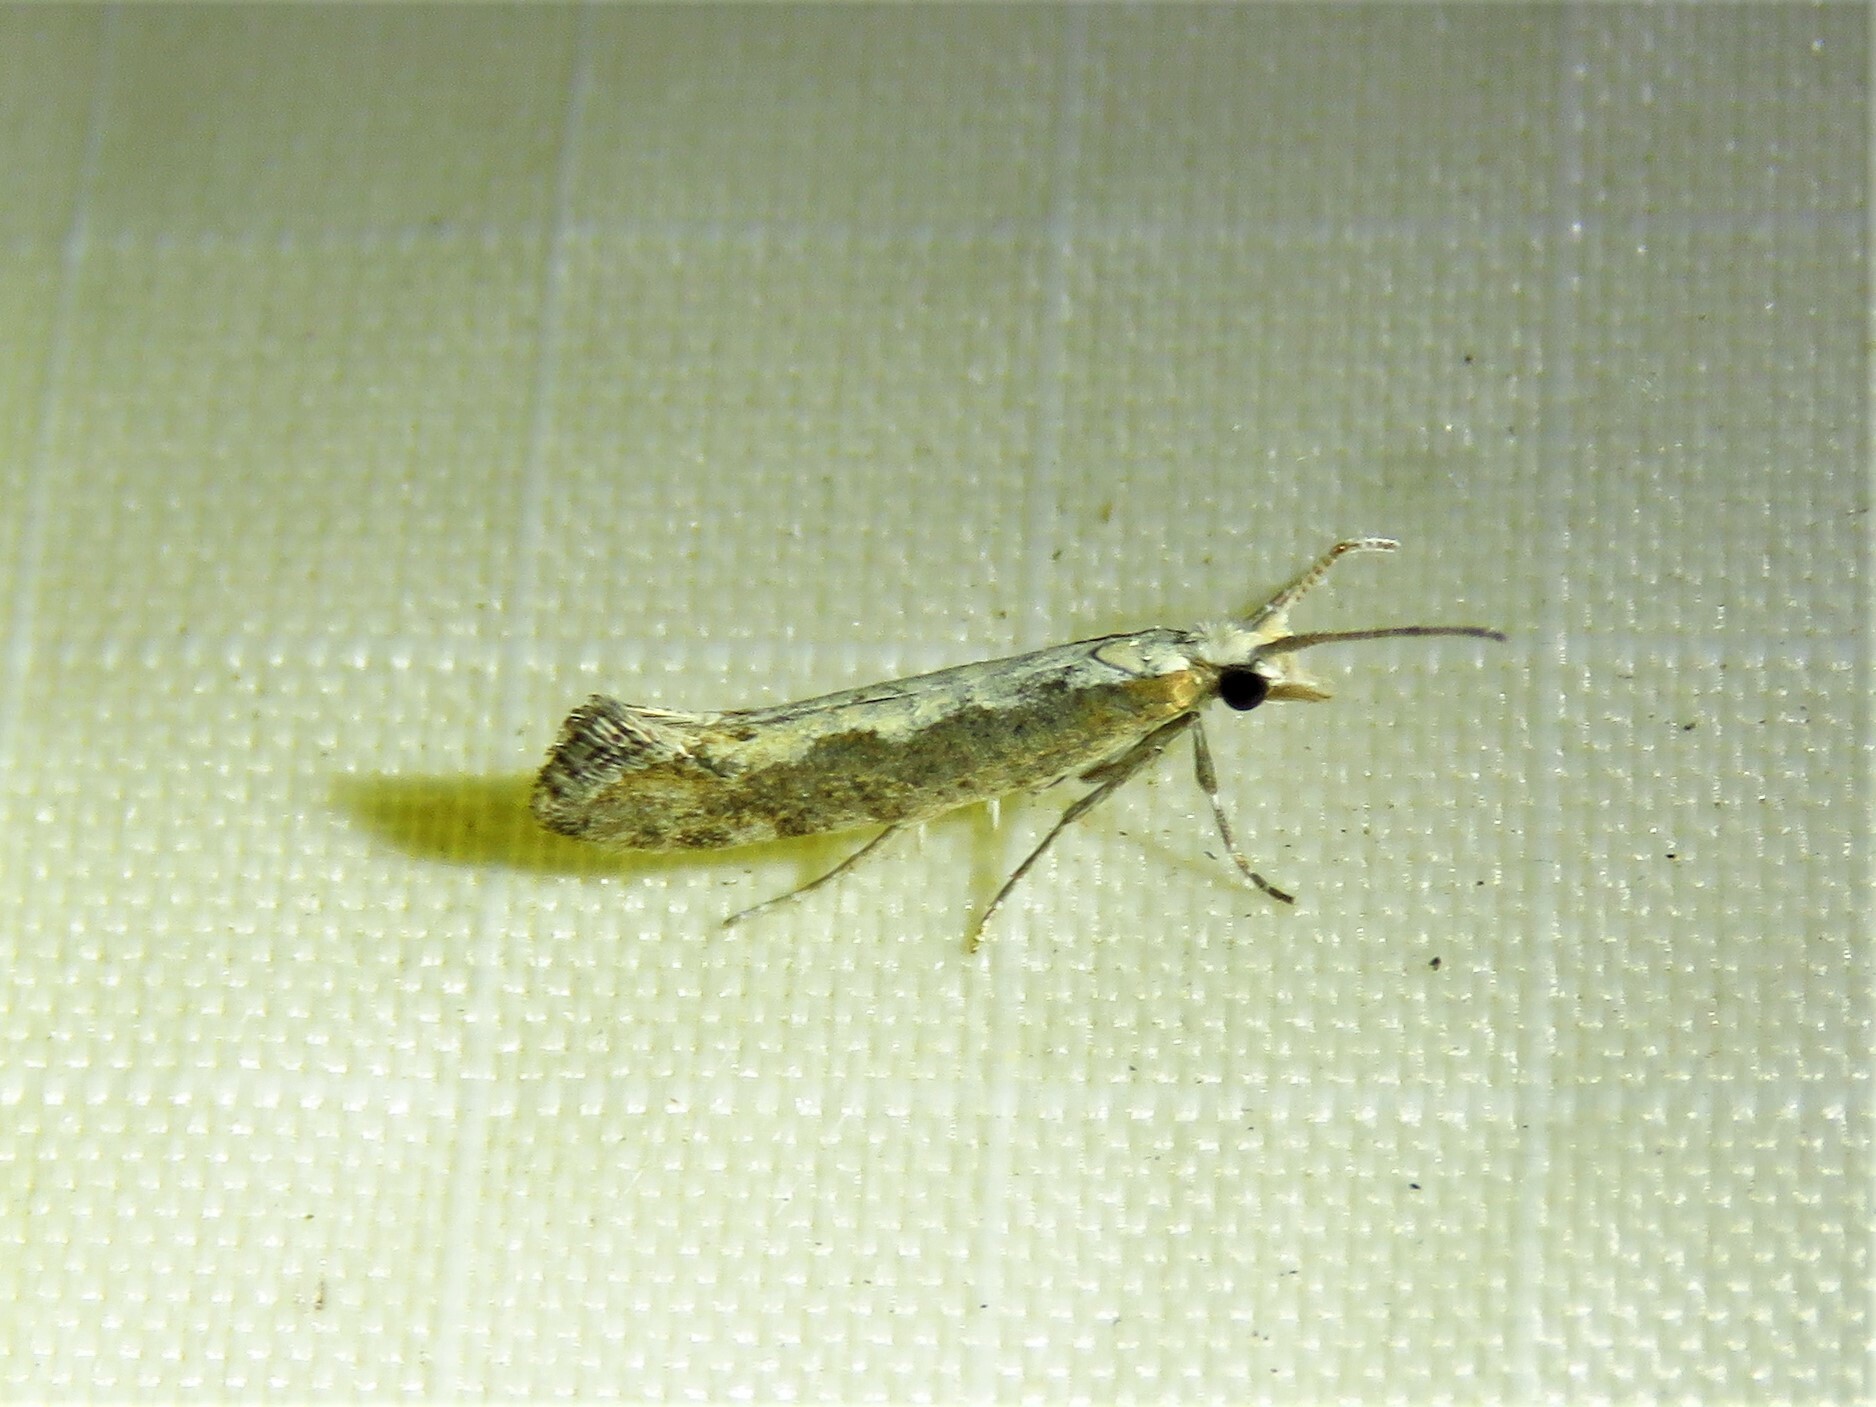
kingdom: Animalia
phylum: Arthropoda
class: Insecta
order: Lepidoptera
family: Plutellidae
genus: Plutella
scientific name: Plutella xylostella
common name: Diamond-back moth
